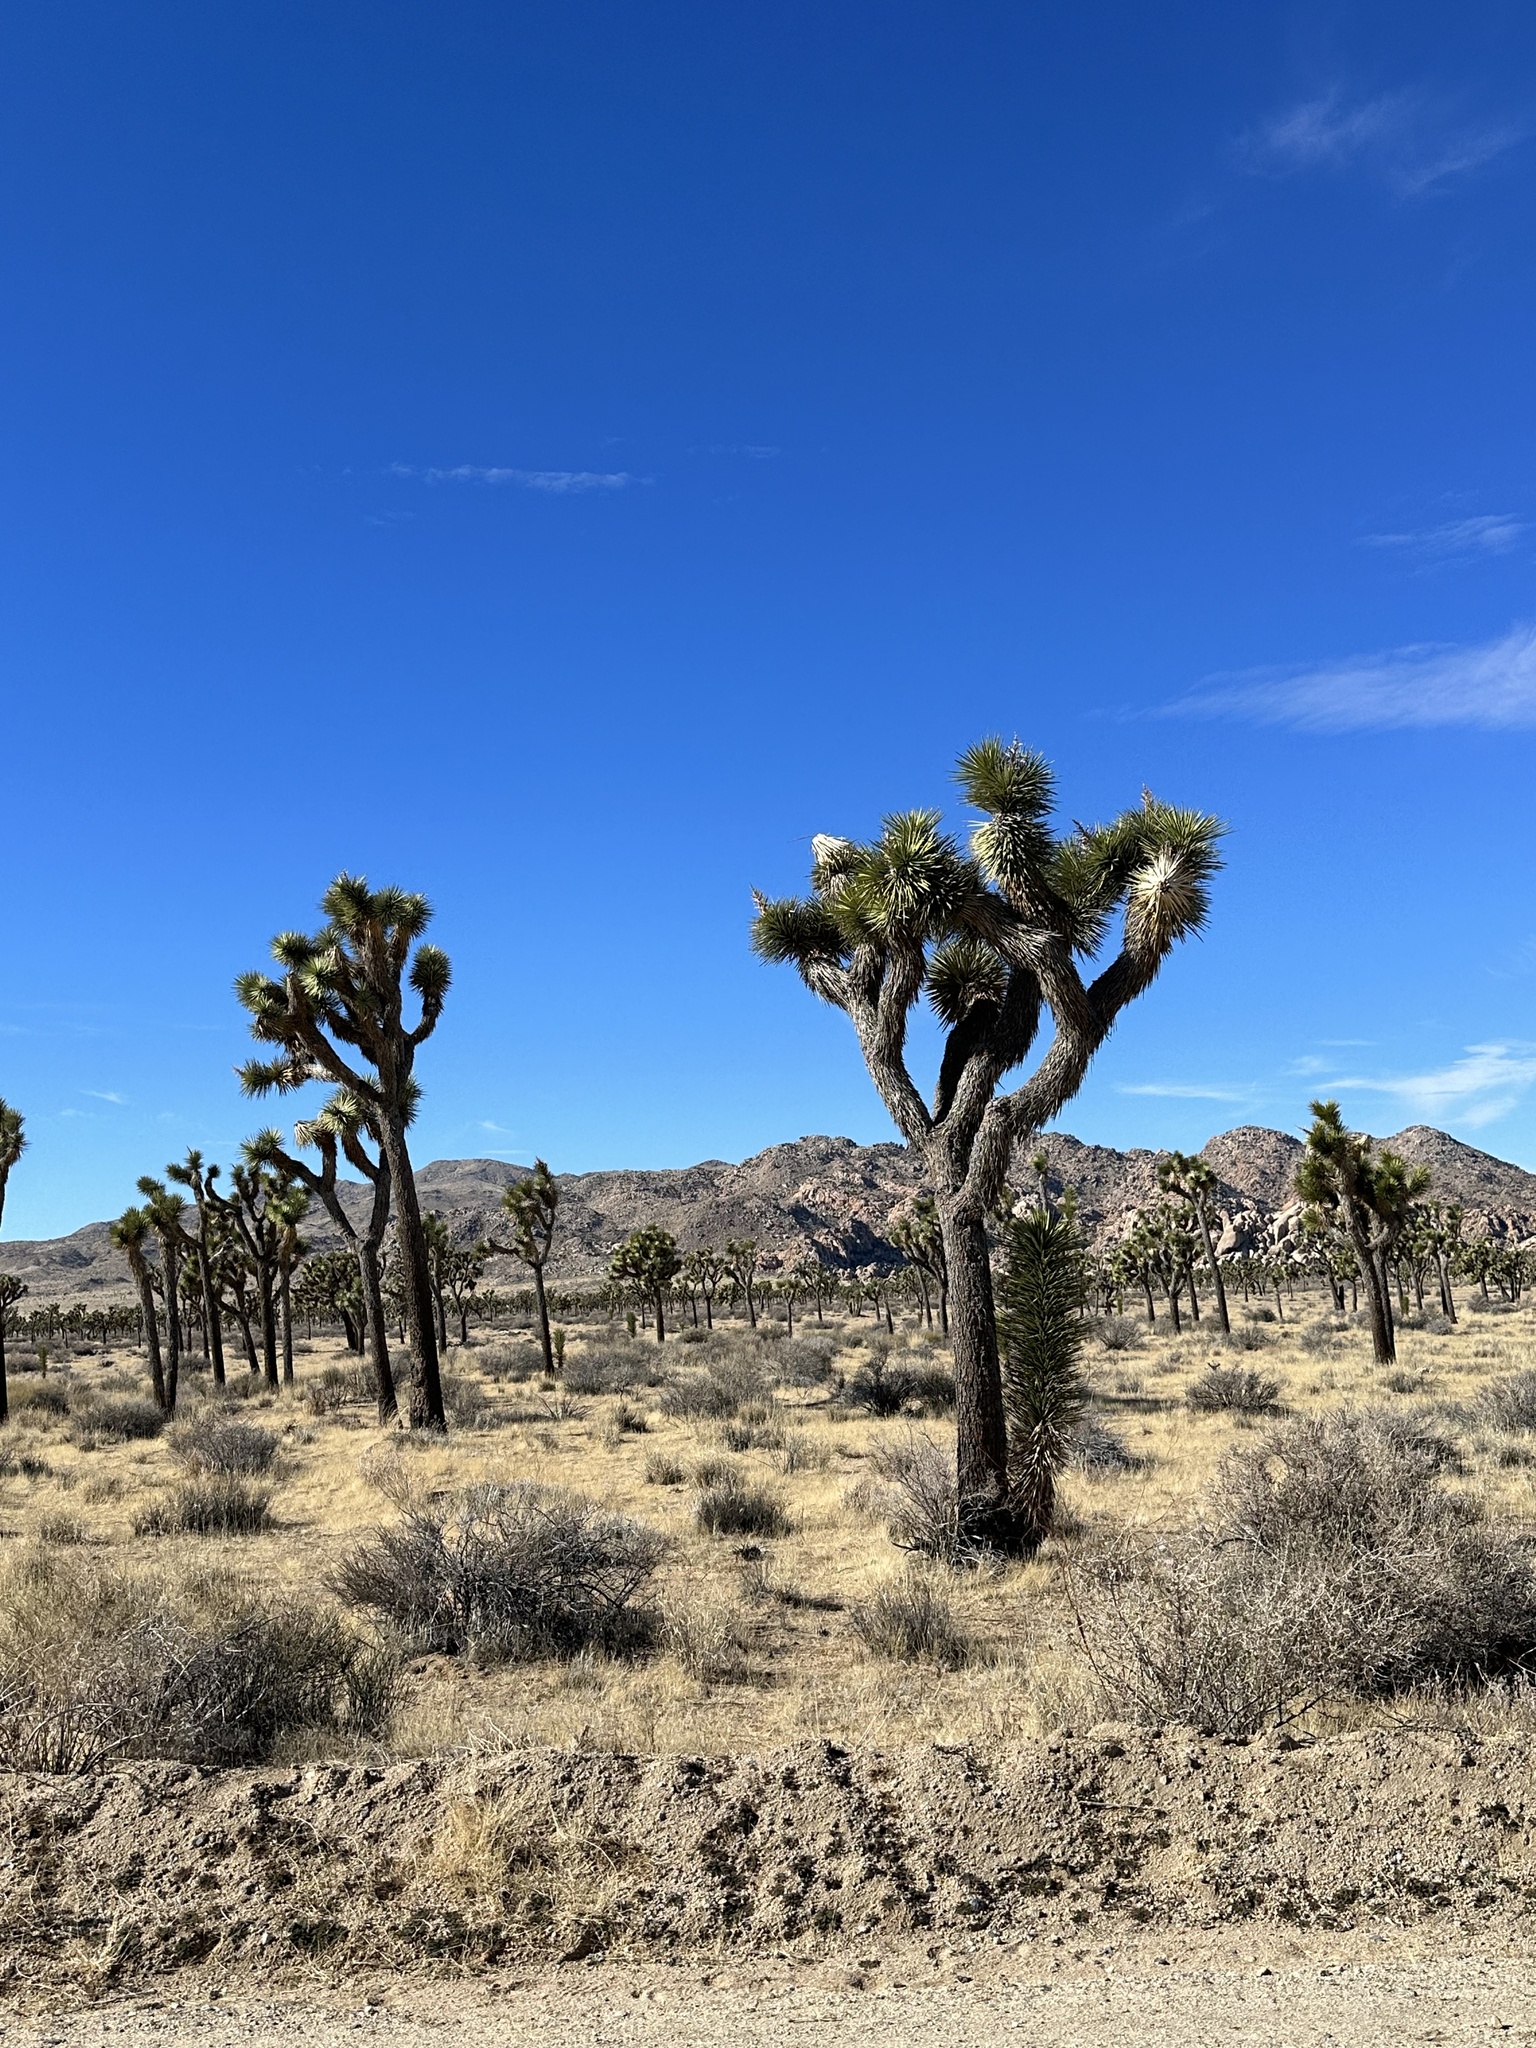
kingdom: Plantae
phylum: Tracheophyta
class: Liliopsida
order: Asparagales
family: Asparagaceae
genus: Yucca
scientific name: Yucca brevifolia
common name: Joshua tree
